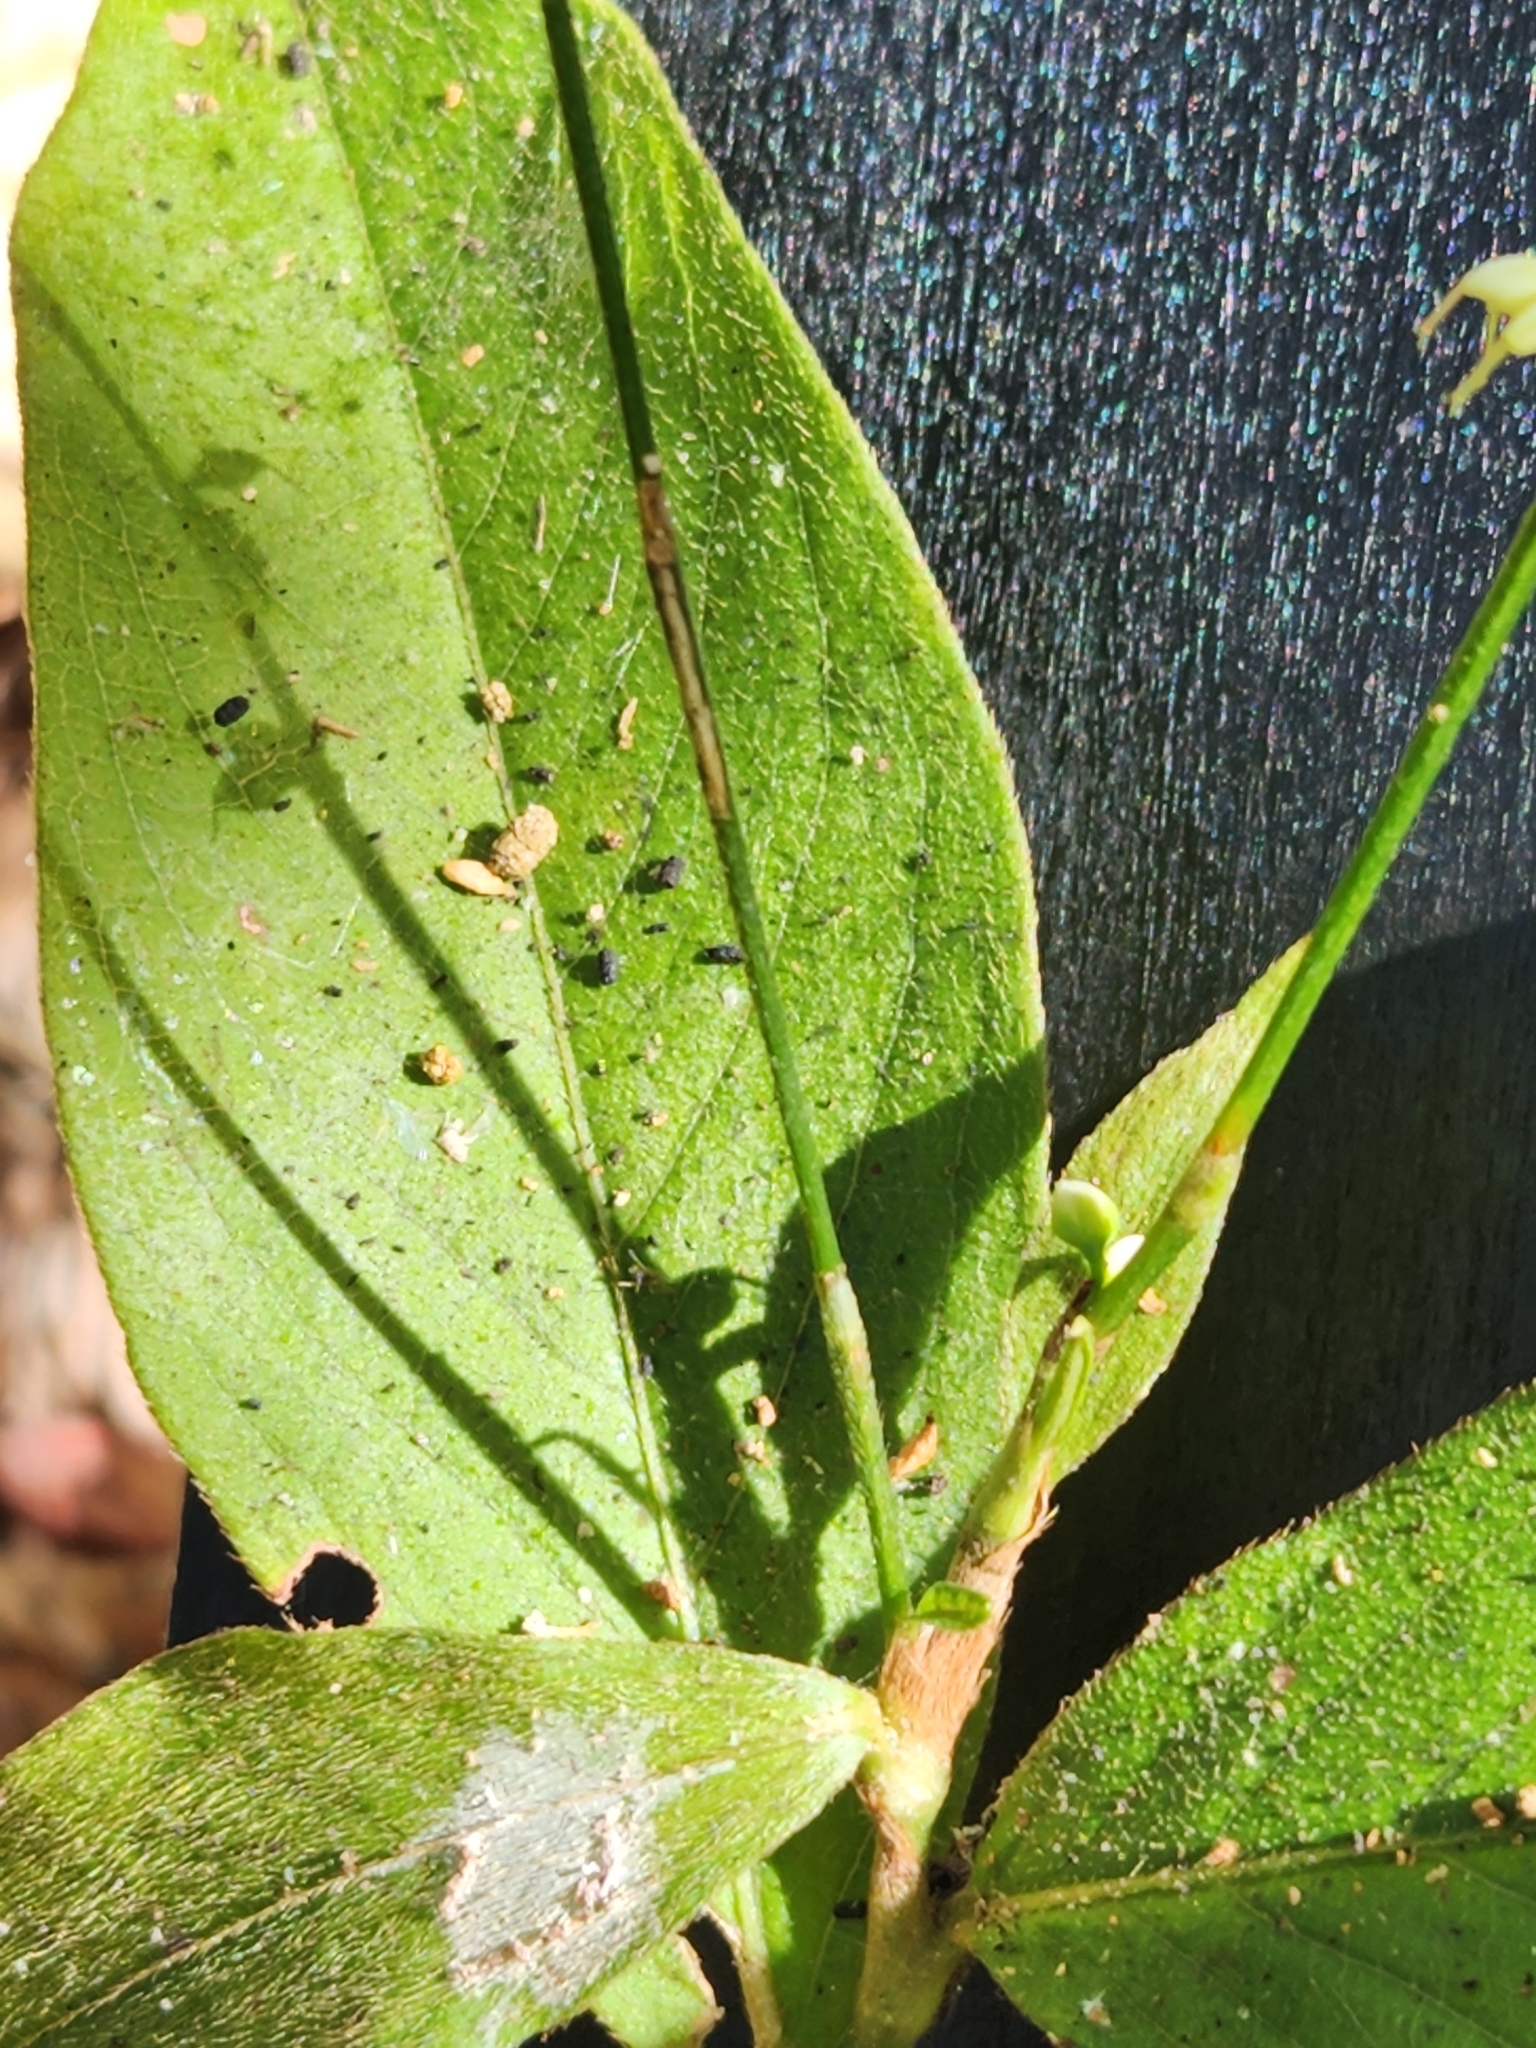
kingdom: Plantae
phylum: Tracheophyta
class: Magnoliopsida
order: Caryophyllales
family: Polygonaceae
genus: Persicaria
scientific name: Persicaria virginiana
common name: Jumpseed
